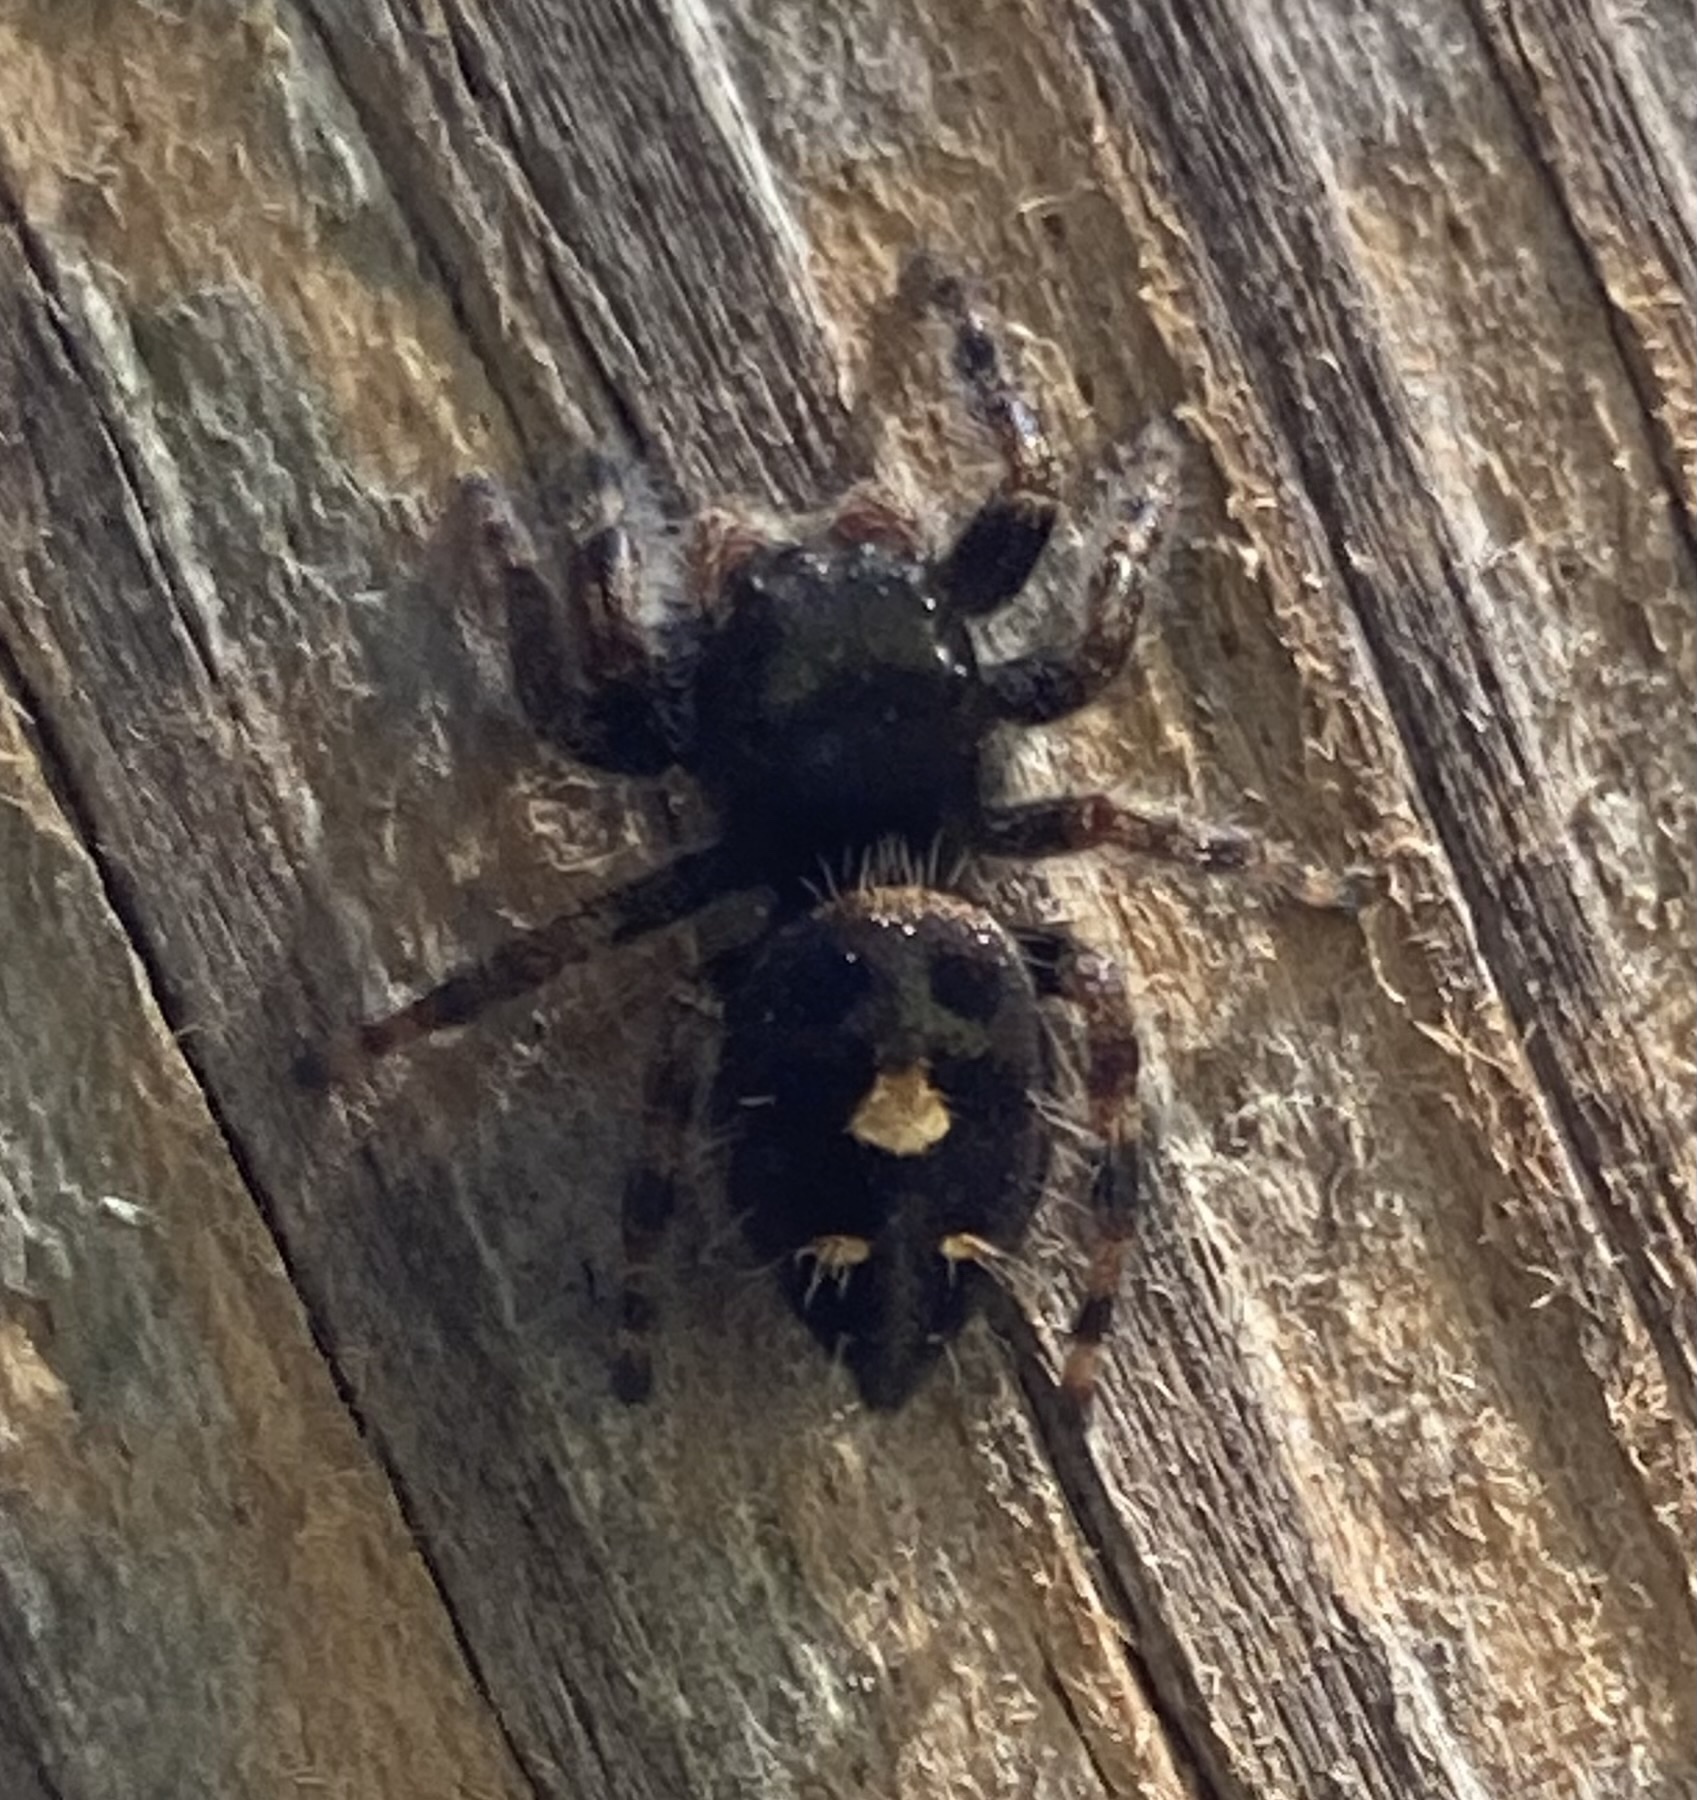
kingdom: Animalia
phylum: Arthropoda
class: Arachnida
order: Araneae
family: Salticidae
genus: Phidippus
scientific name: Phidippus audax
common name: Bold jumper
